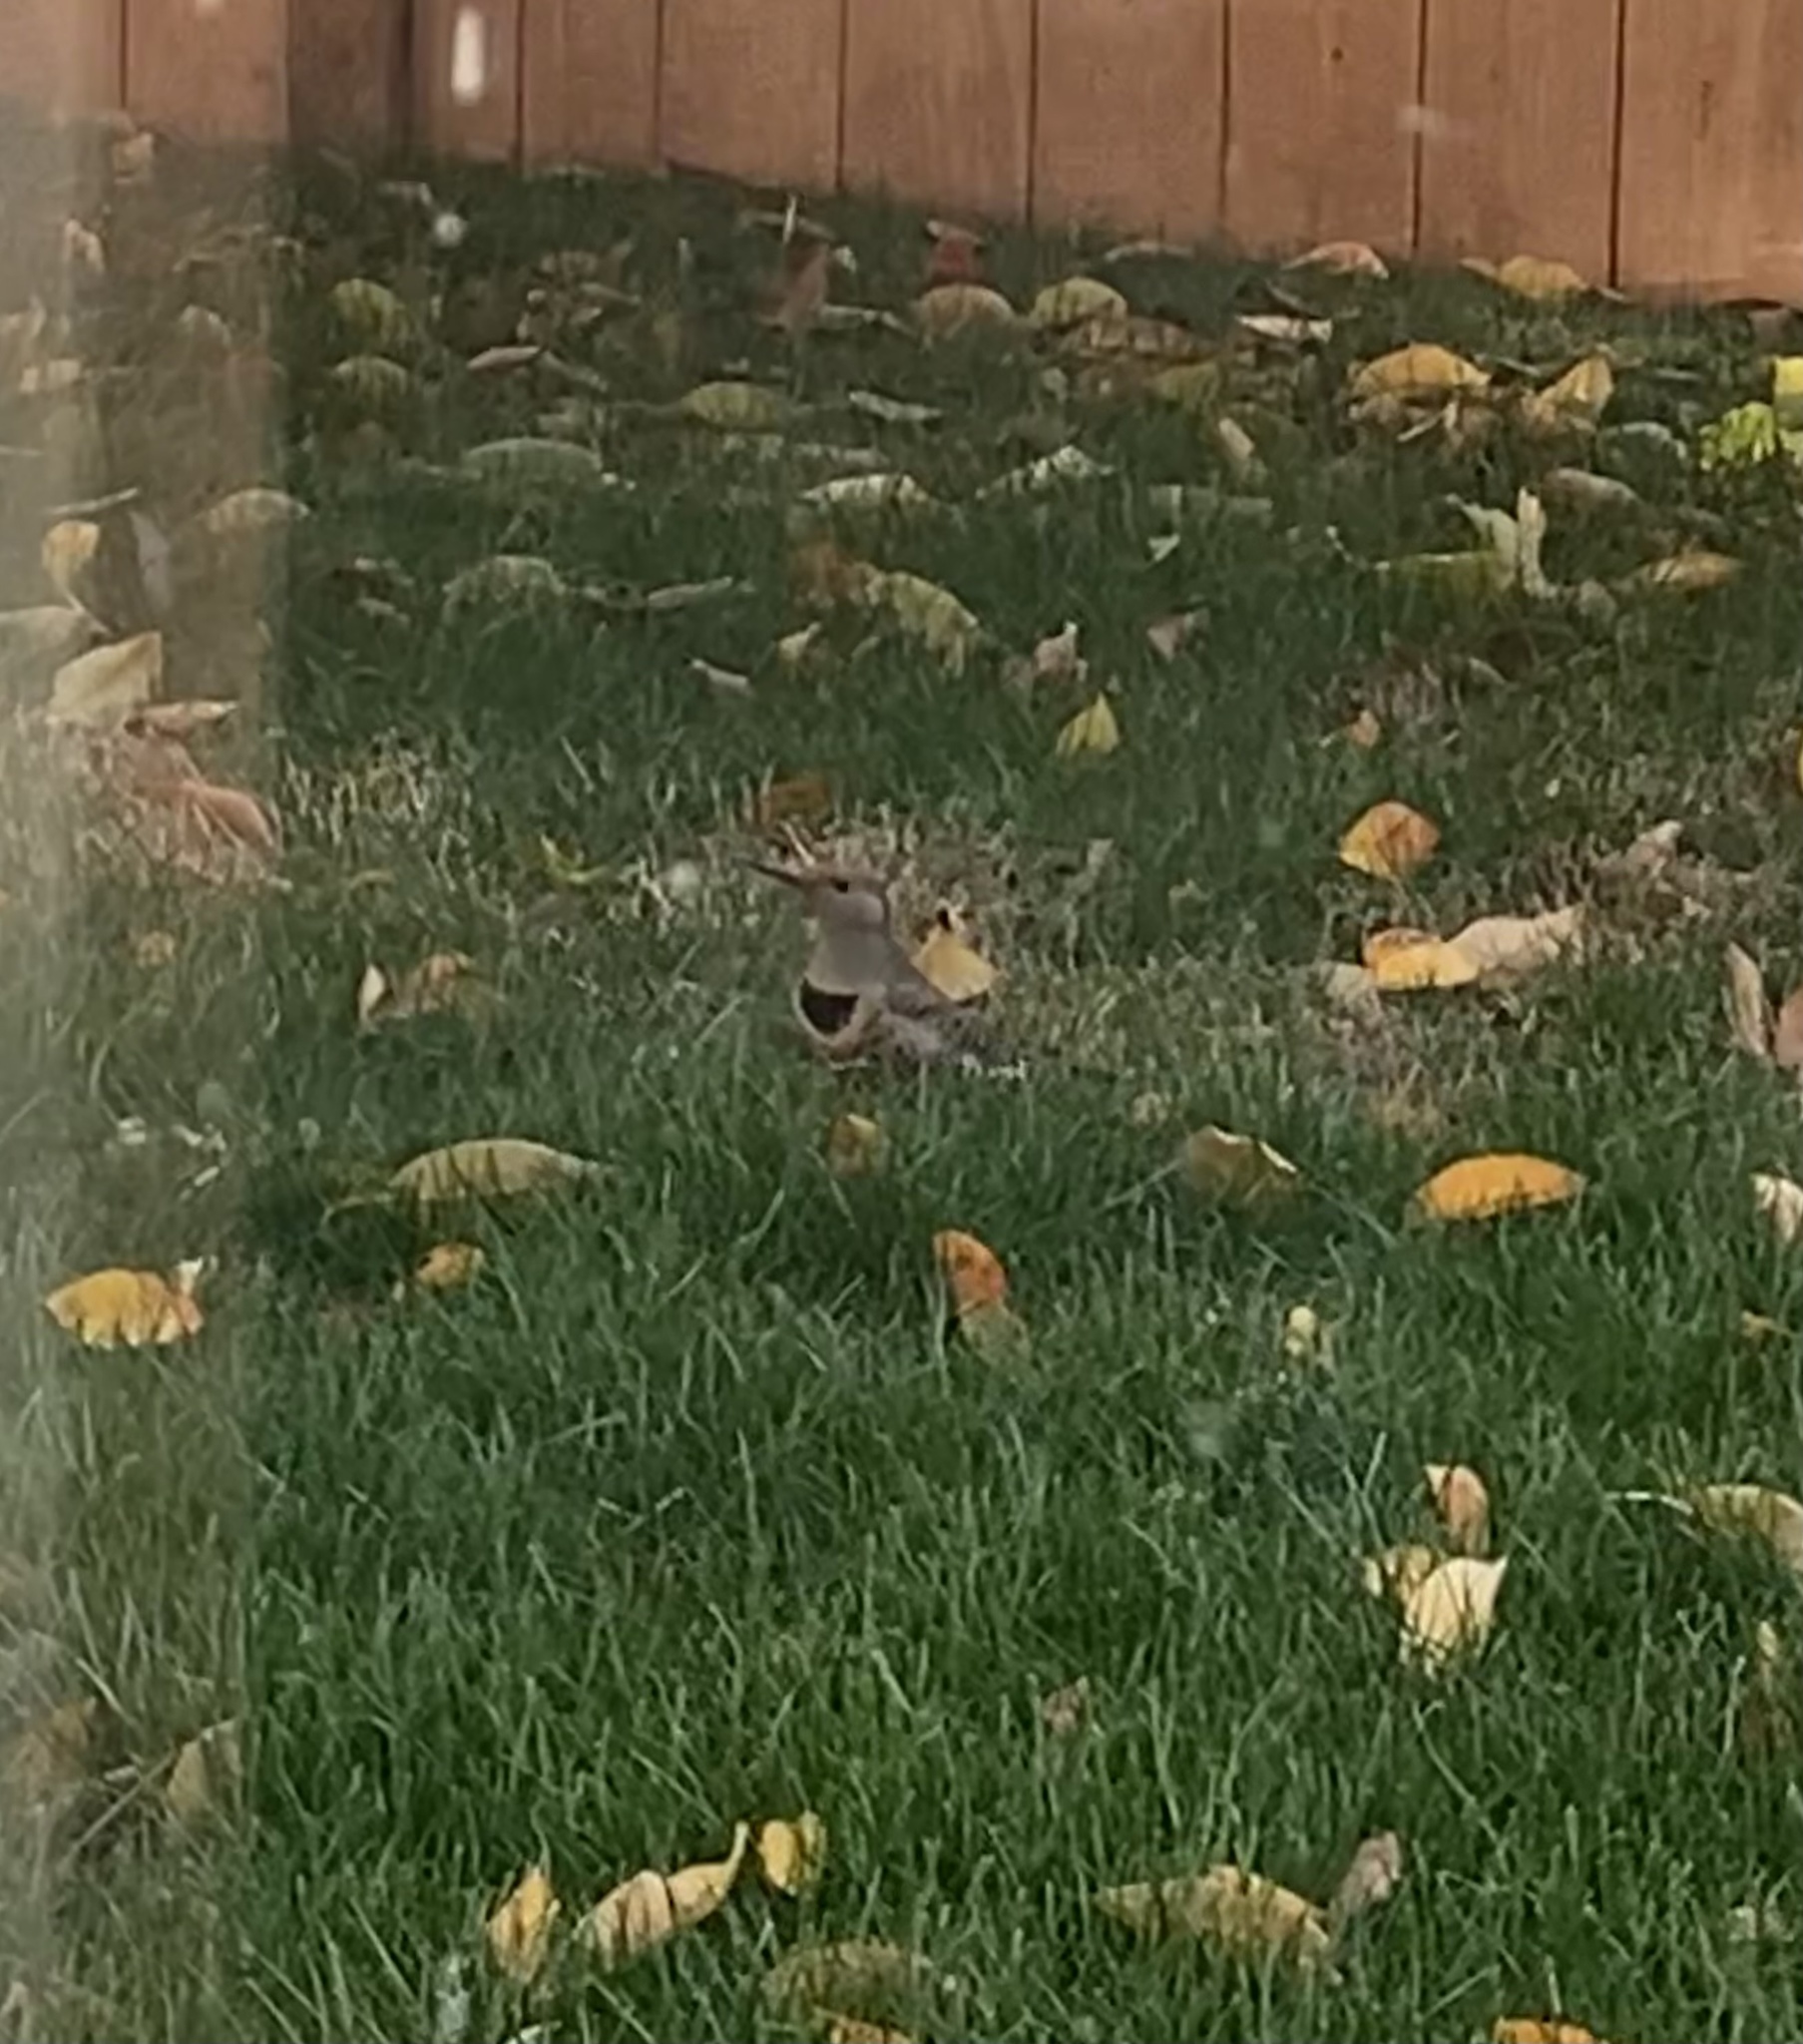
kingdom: Animalia
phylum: Chordata
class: Aves
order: Piciformes
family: Picidae
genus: Colaptes
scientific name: Colaptes auratus
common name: Northern flicker
